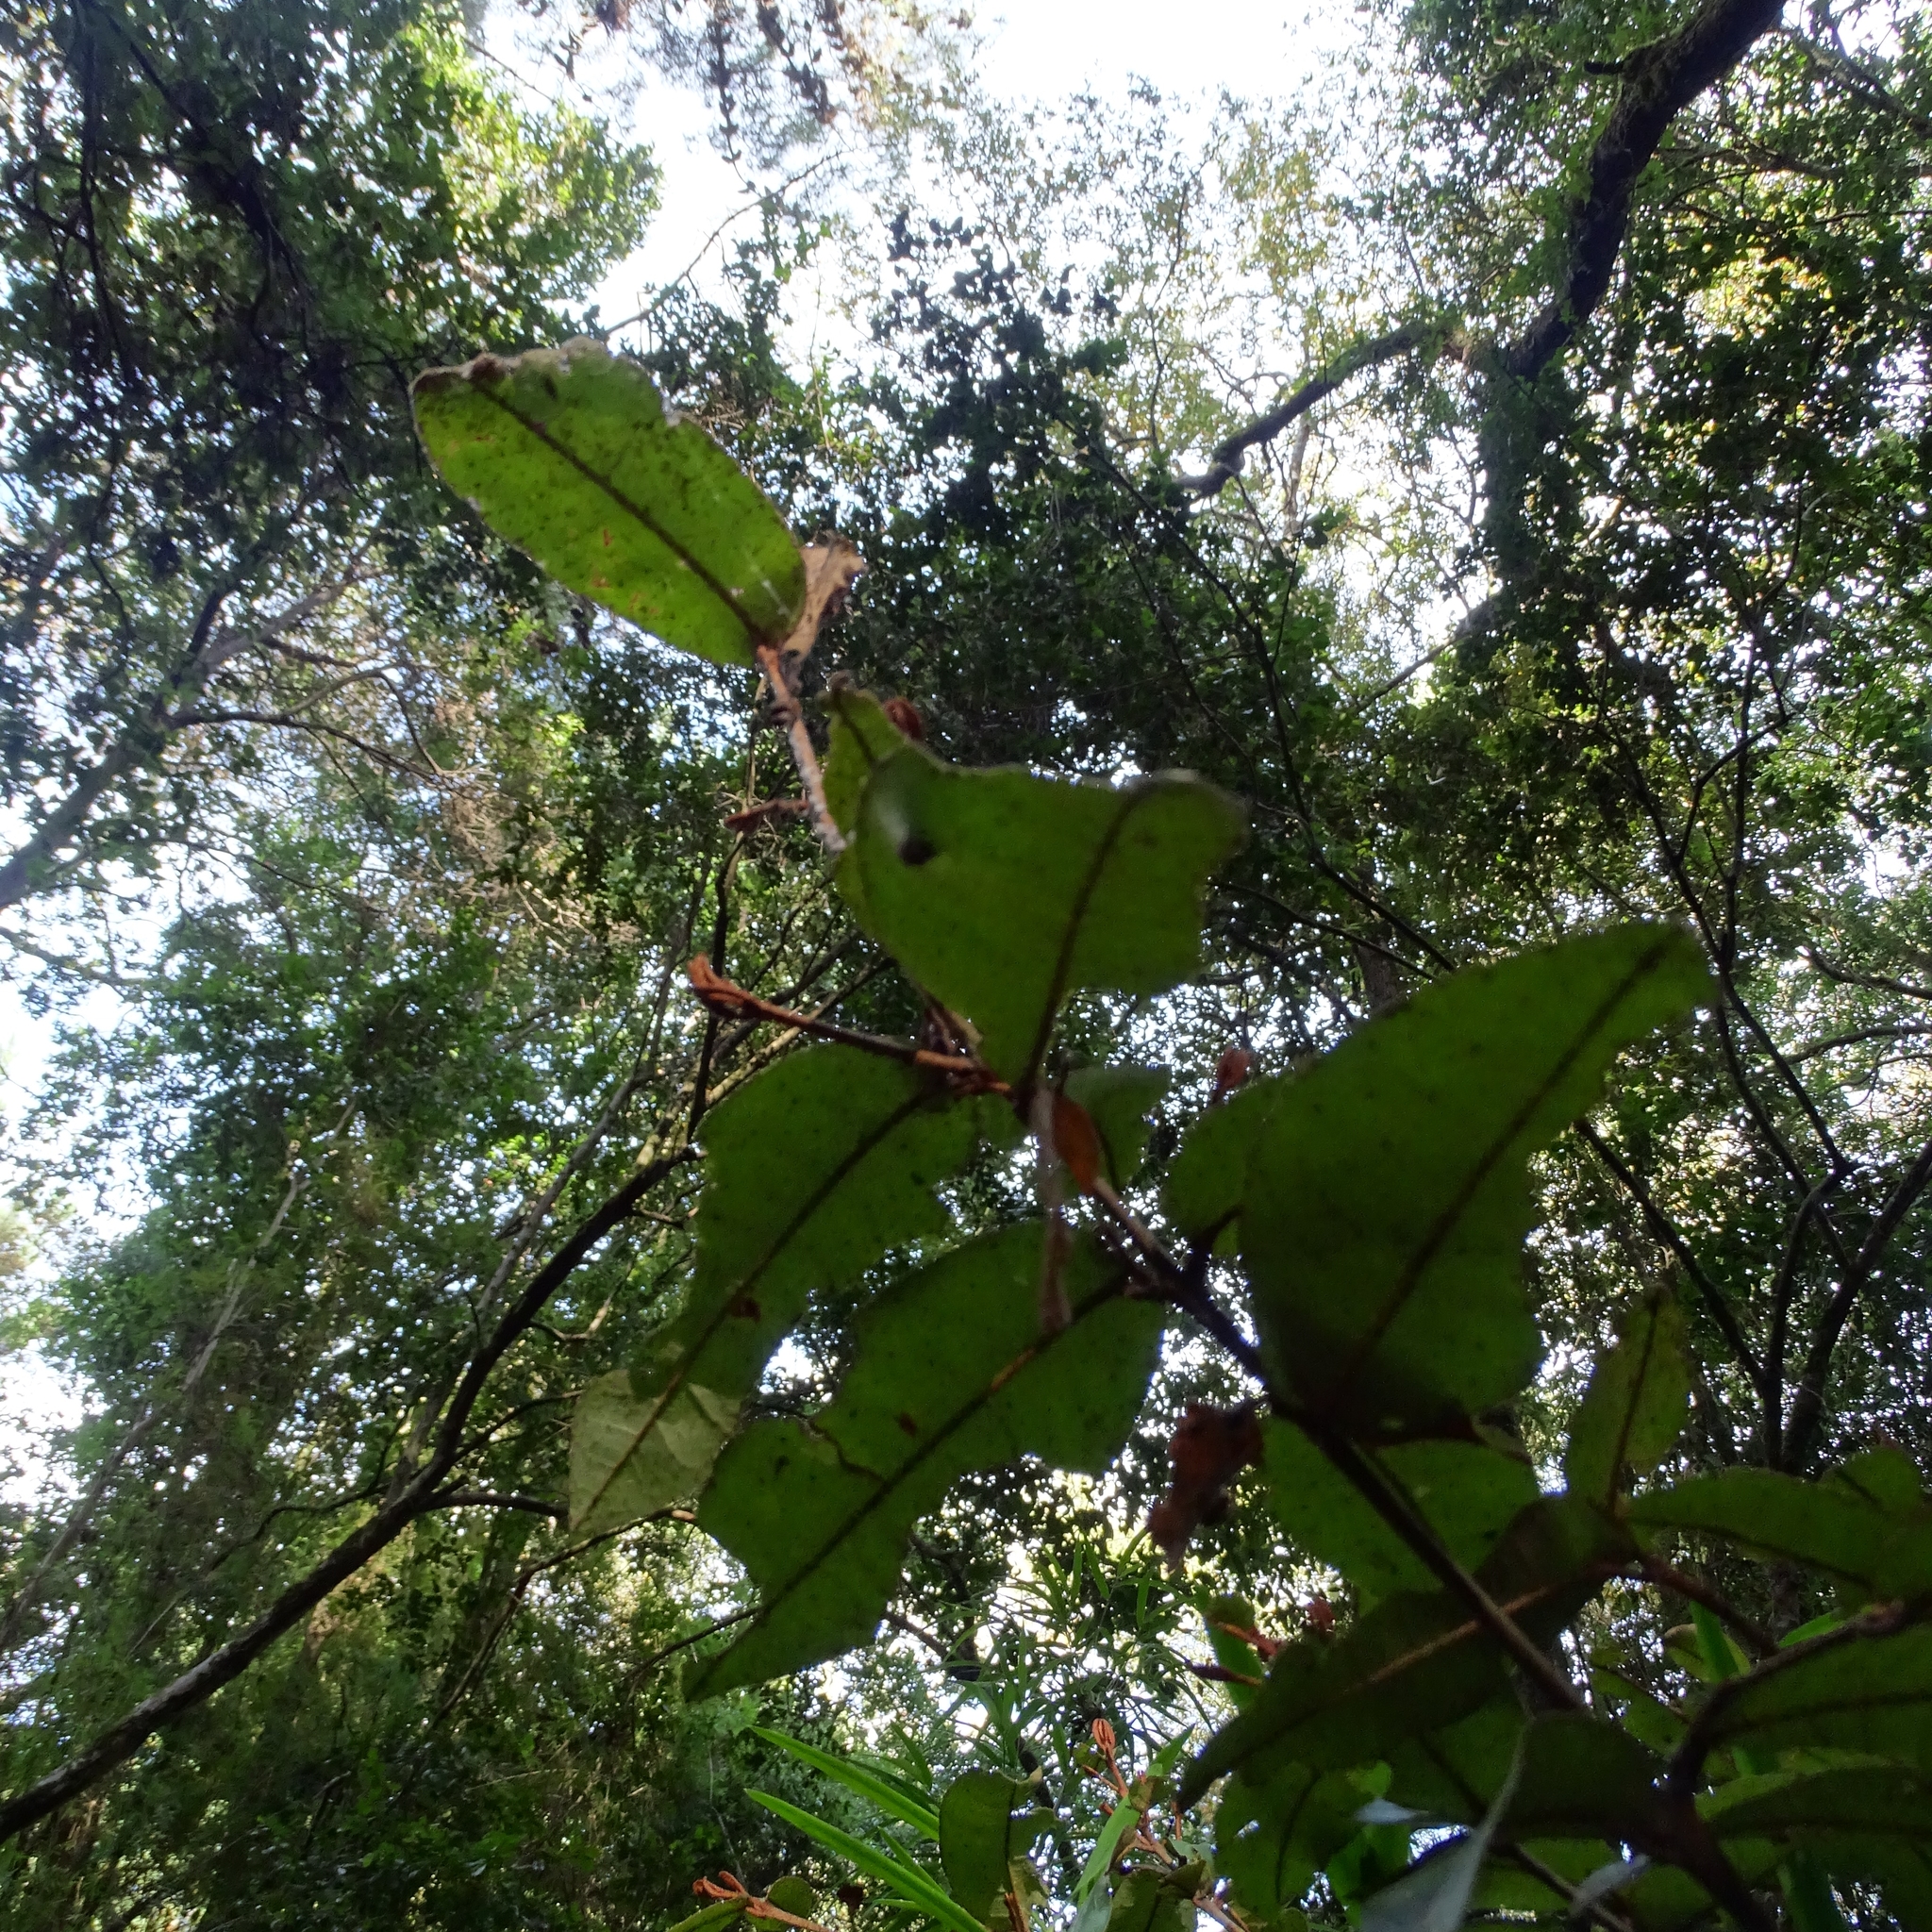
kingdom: Plantae
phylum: Tracheophyta
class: Magnoliopsida
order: Berberidopsidales
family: Aextoxicaceae
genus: Aextoxicon
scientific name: Aextoxicon punctatum
